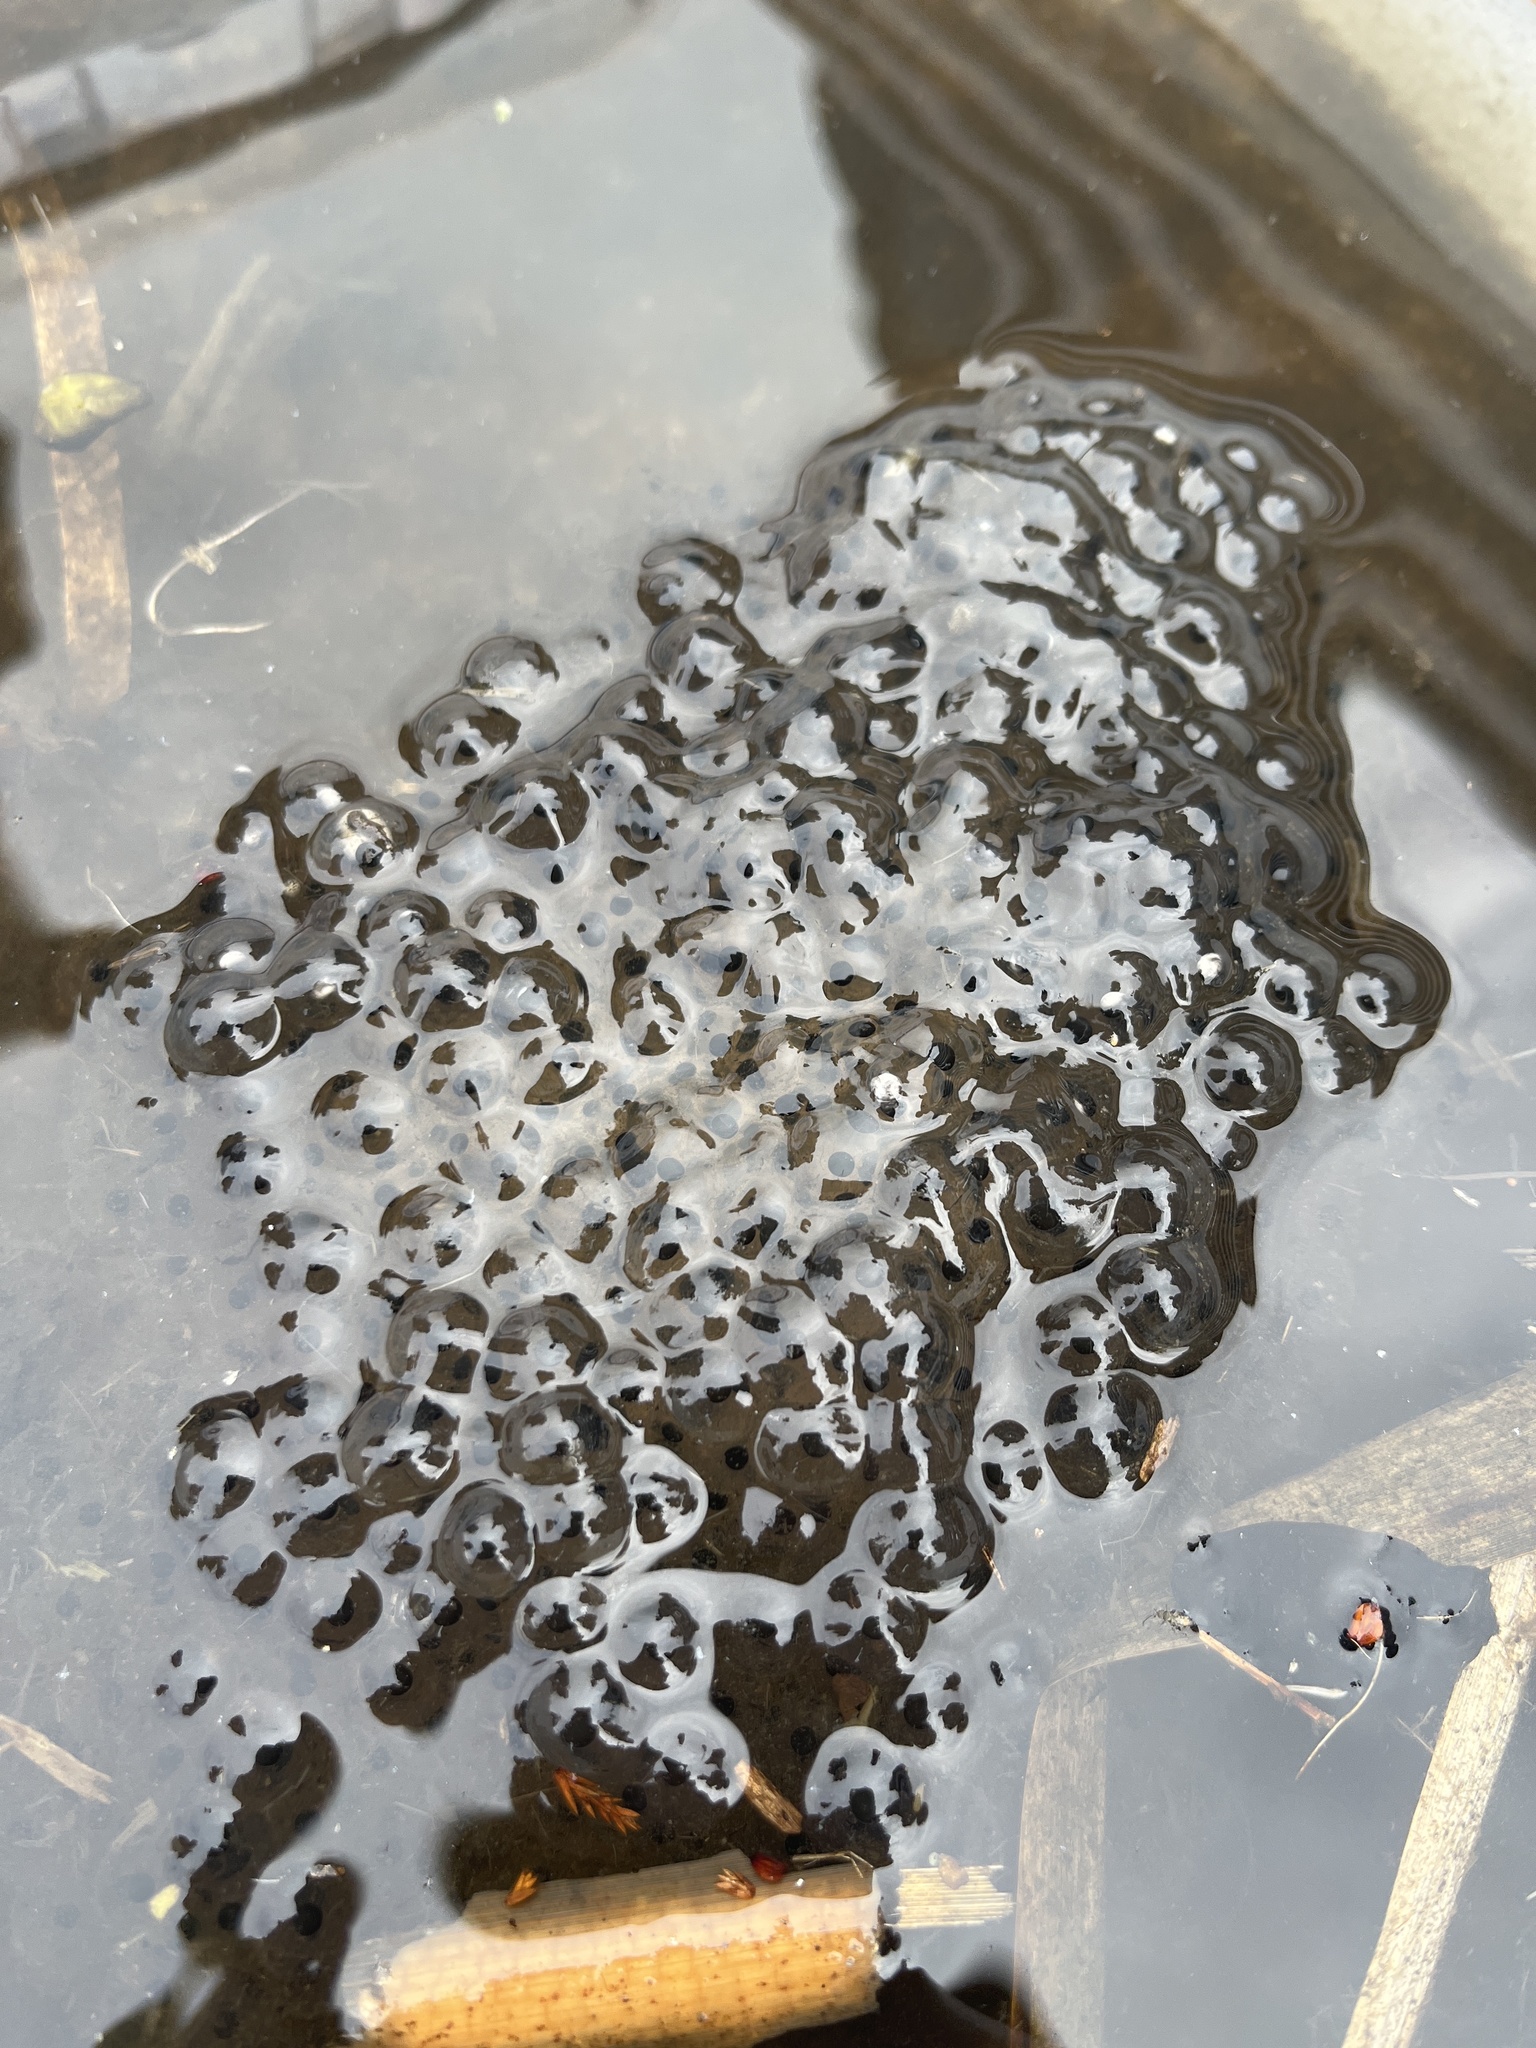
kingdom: Animalia
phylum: Chordata
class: Amphibia
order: Anura
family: Ranidae
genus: Rana
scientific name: Rana temporaria
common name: Common frog
